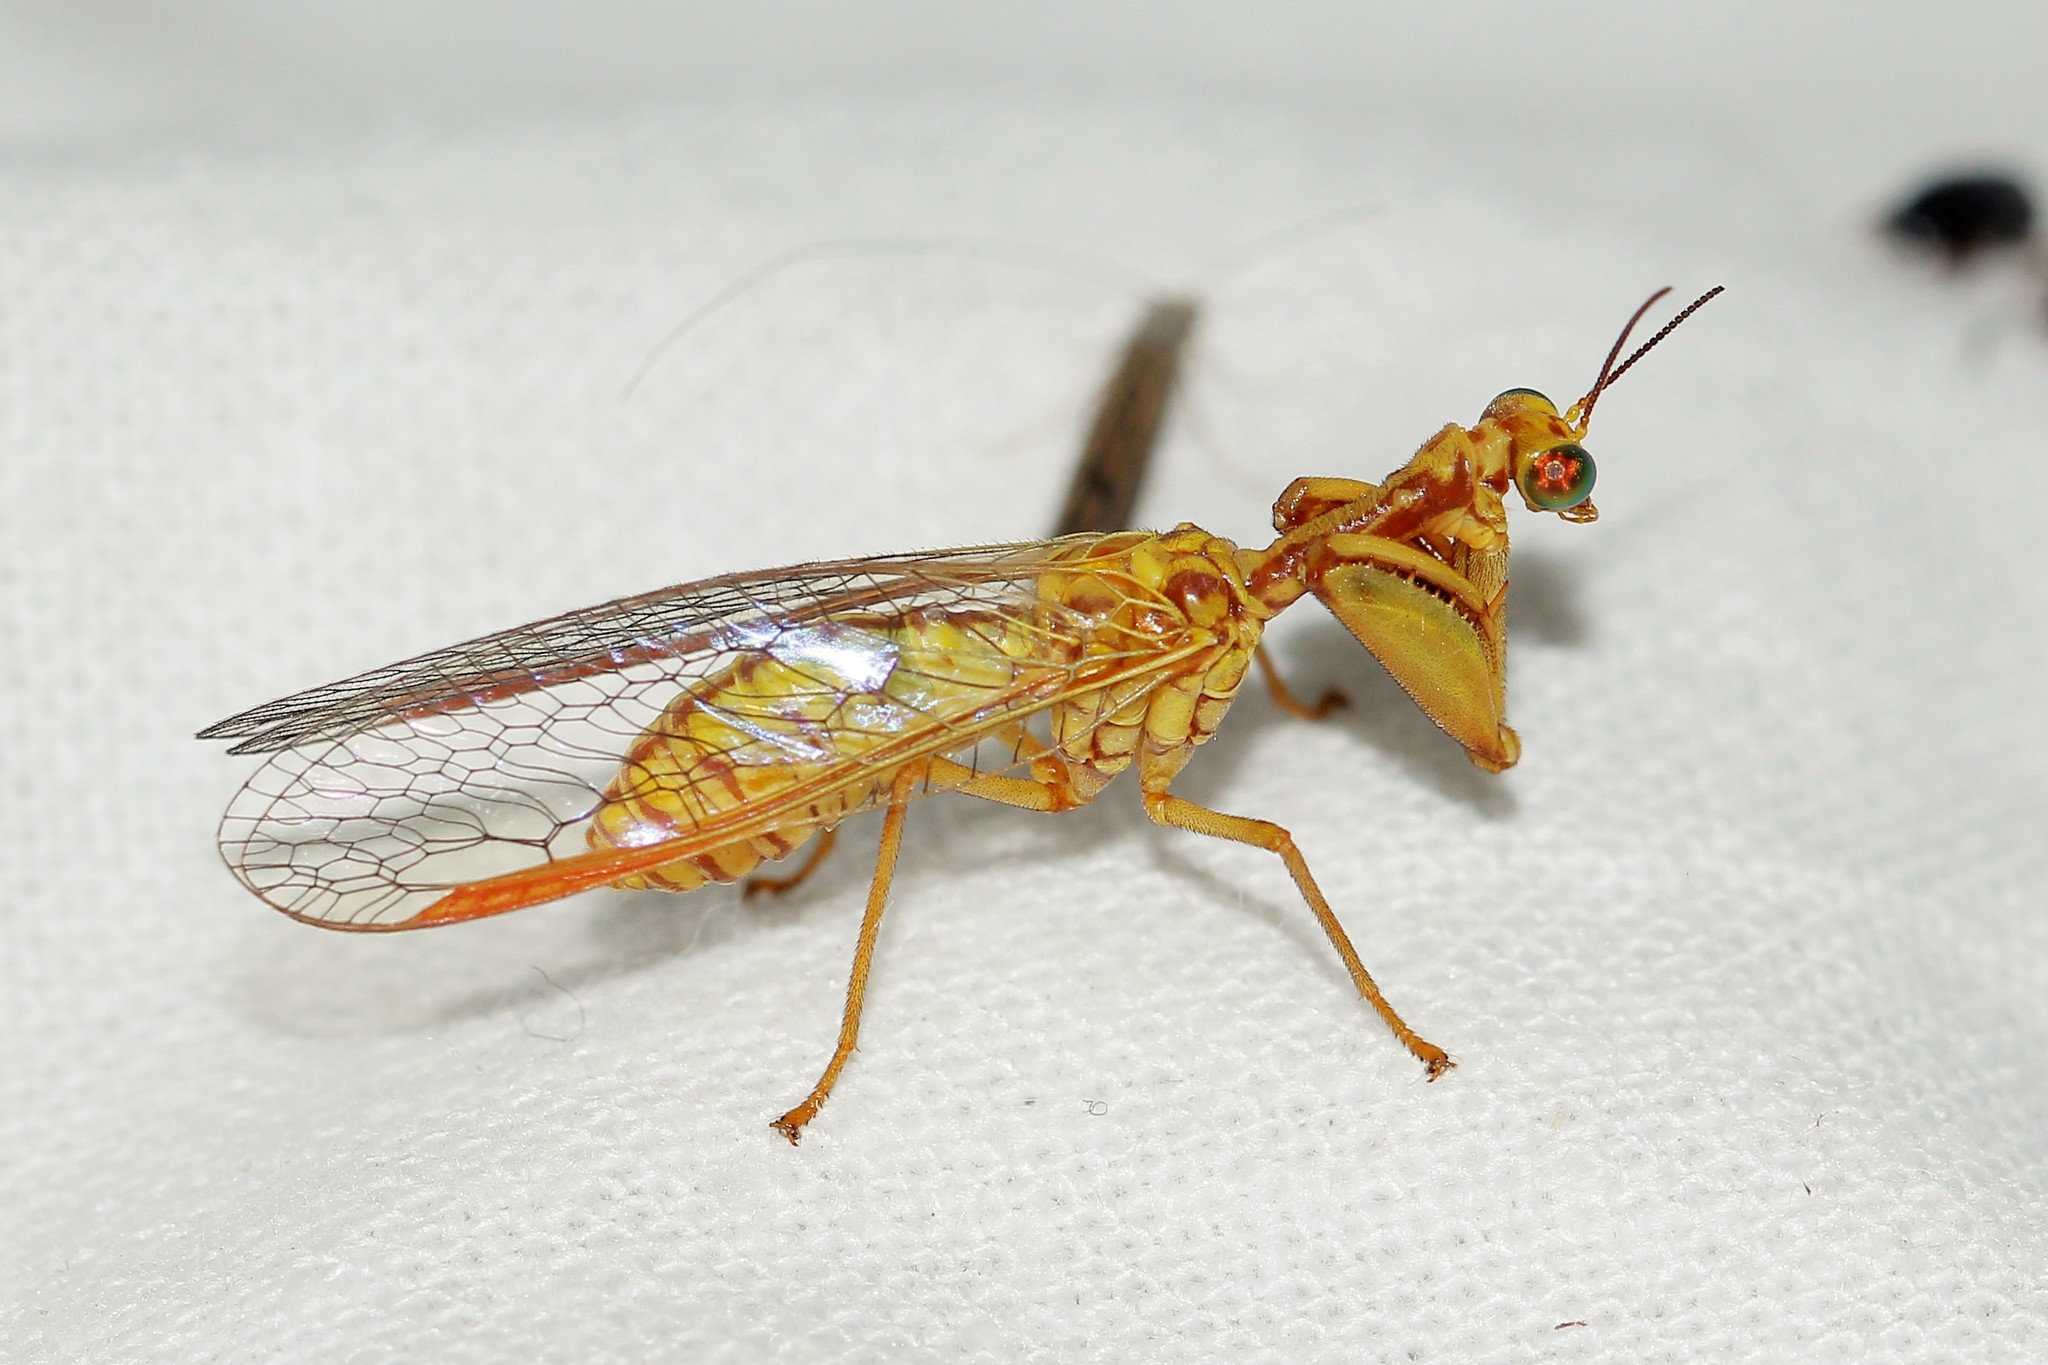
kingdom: Animalia
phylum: Arthropoda
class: Insecta
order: Neuroptera
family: Mantispidae
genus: Mantispa
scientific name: Mantispa aphavexelte
